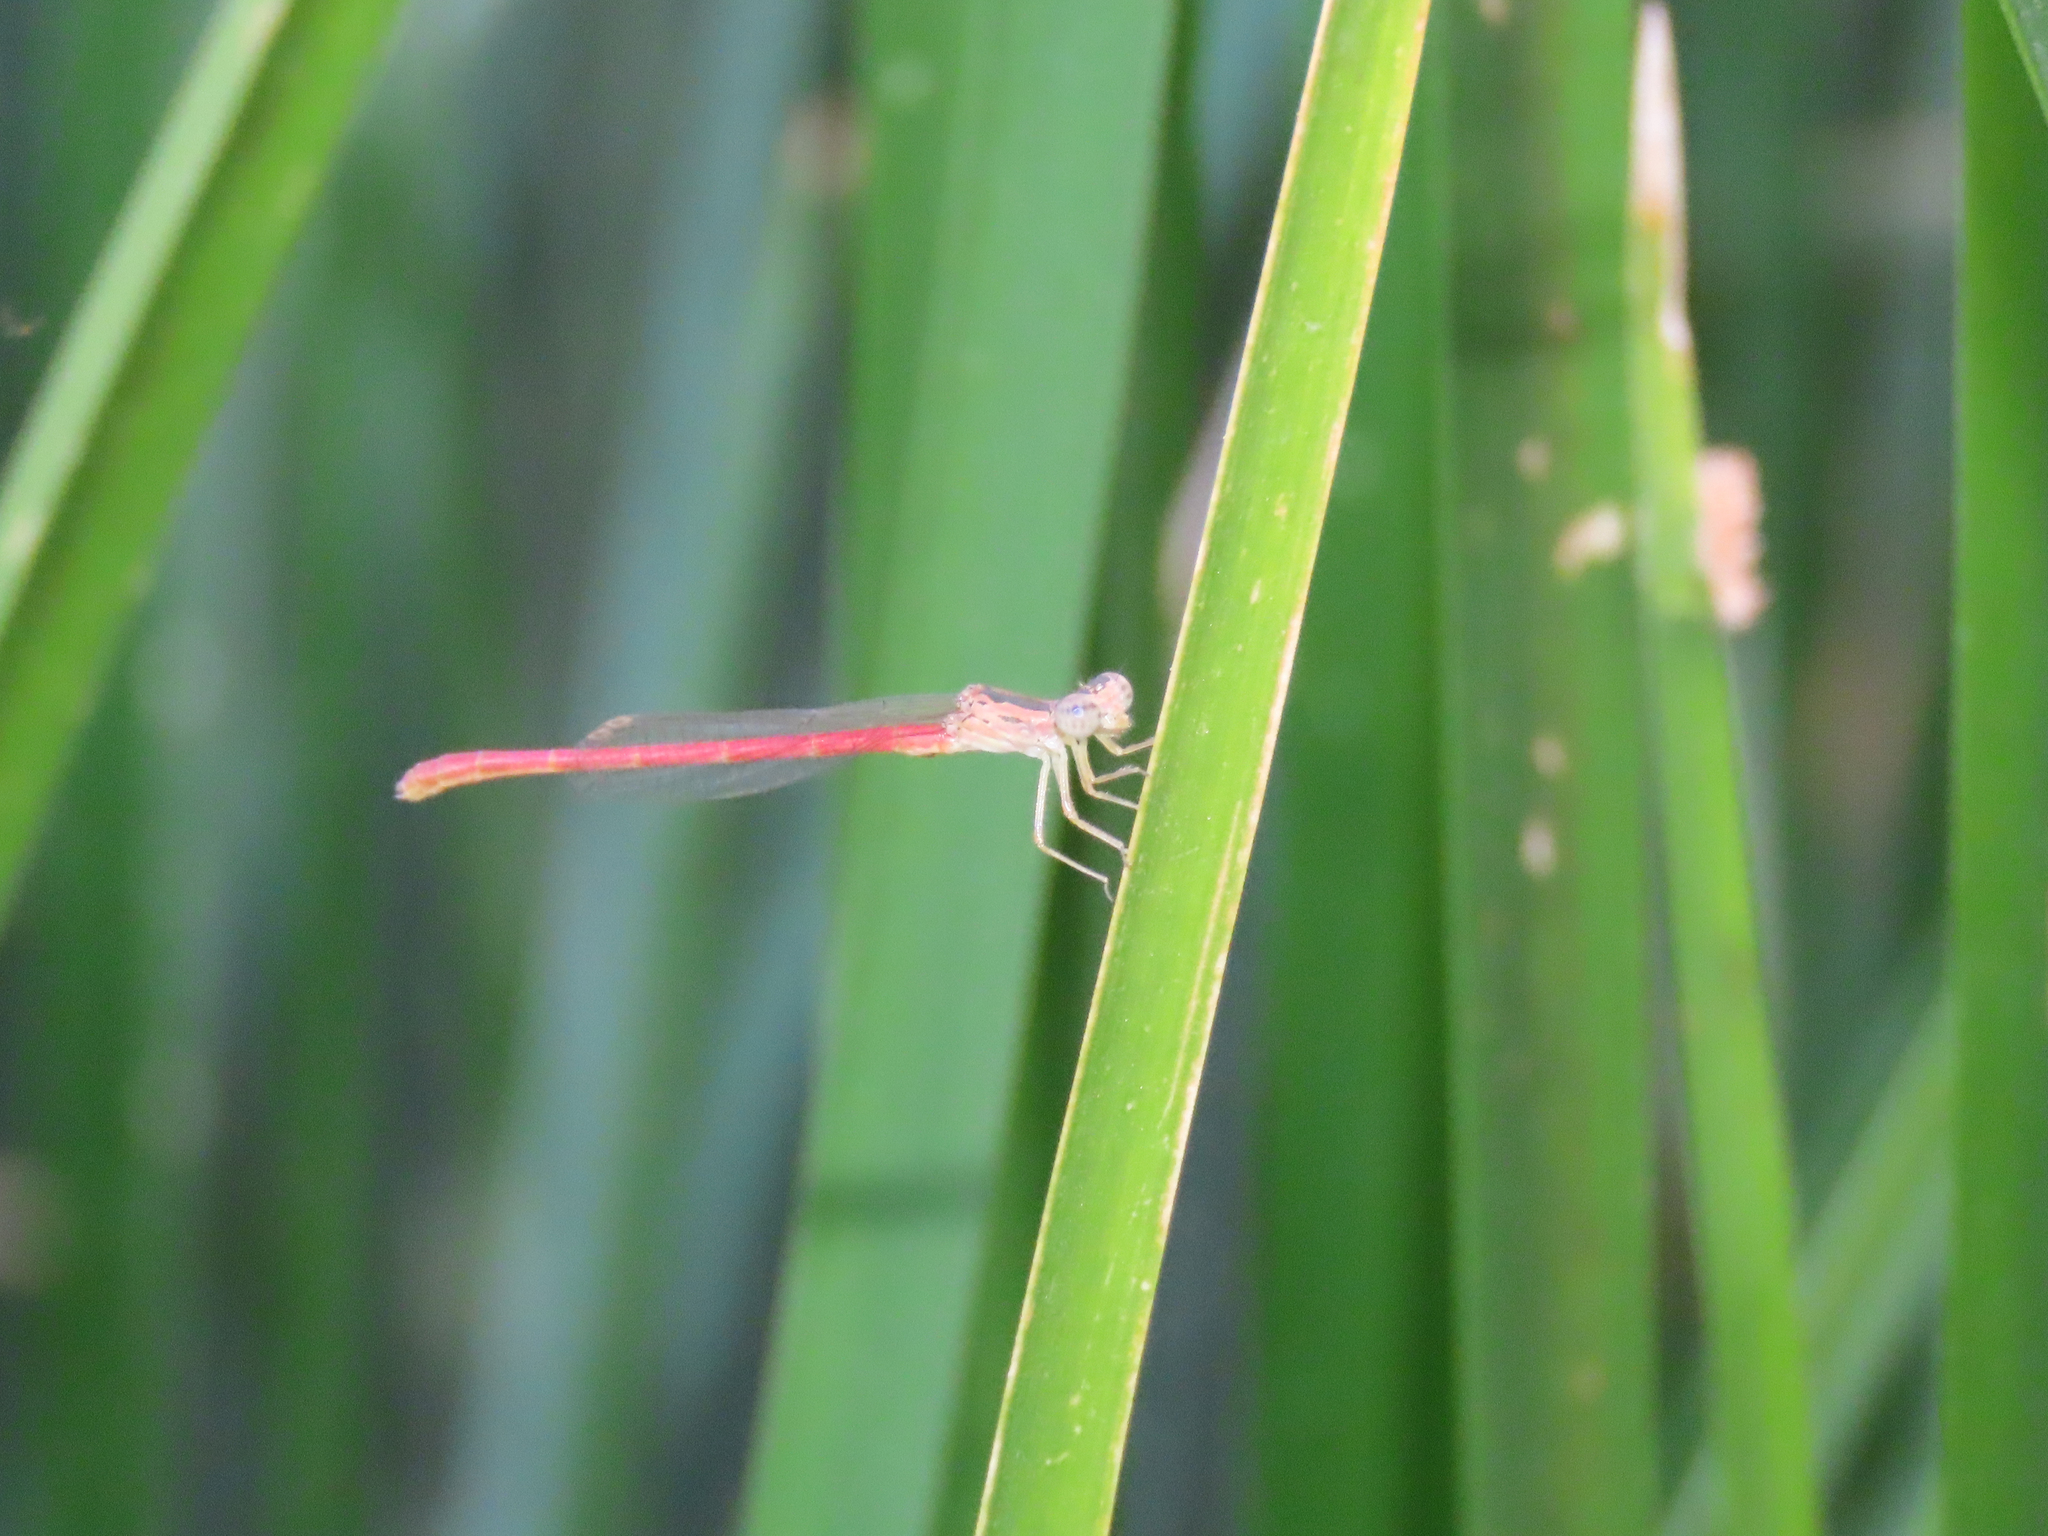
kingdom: Animalia
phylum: Arthropoda
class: Insecta
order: Odonata
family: Coenagrionidae
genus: Telebasis
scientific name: Telebasis salva
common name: Desert firetail
